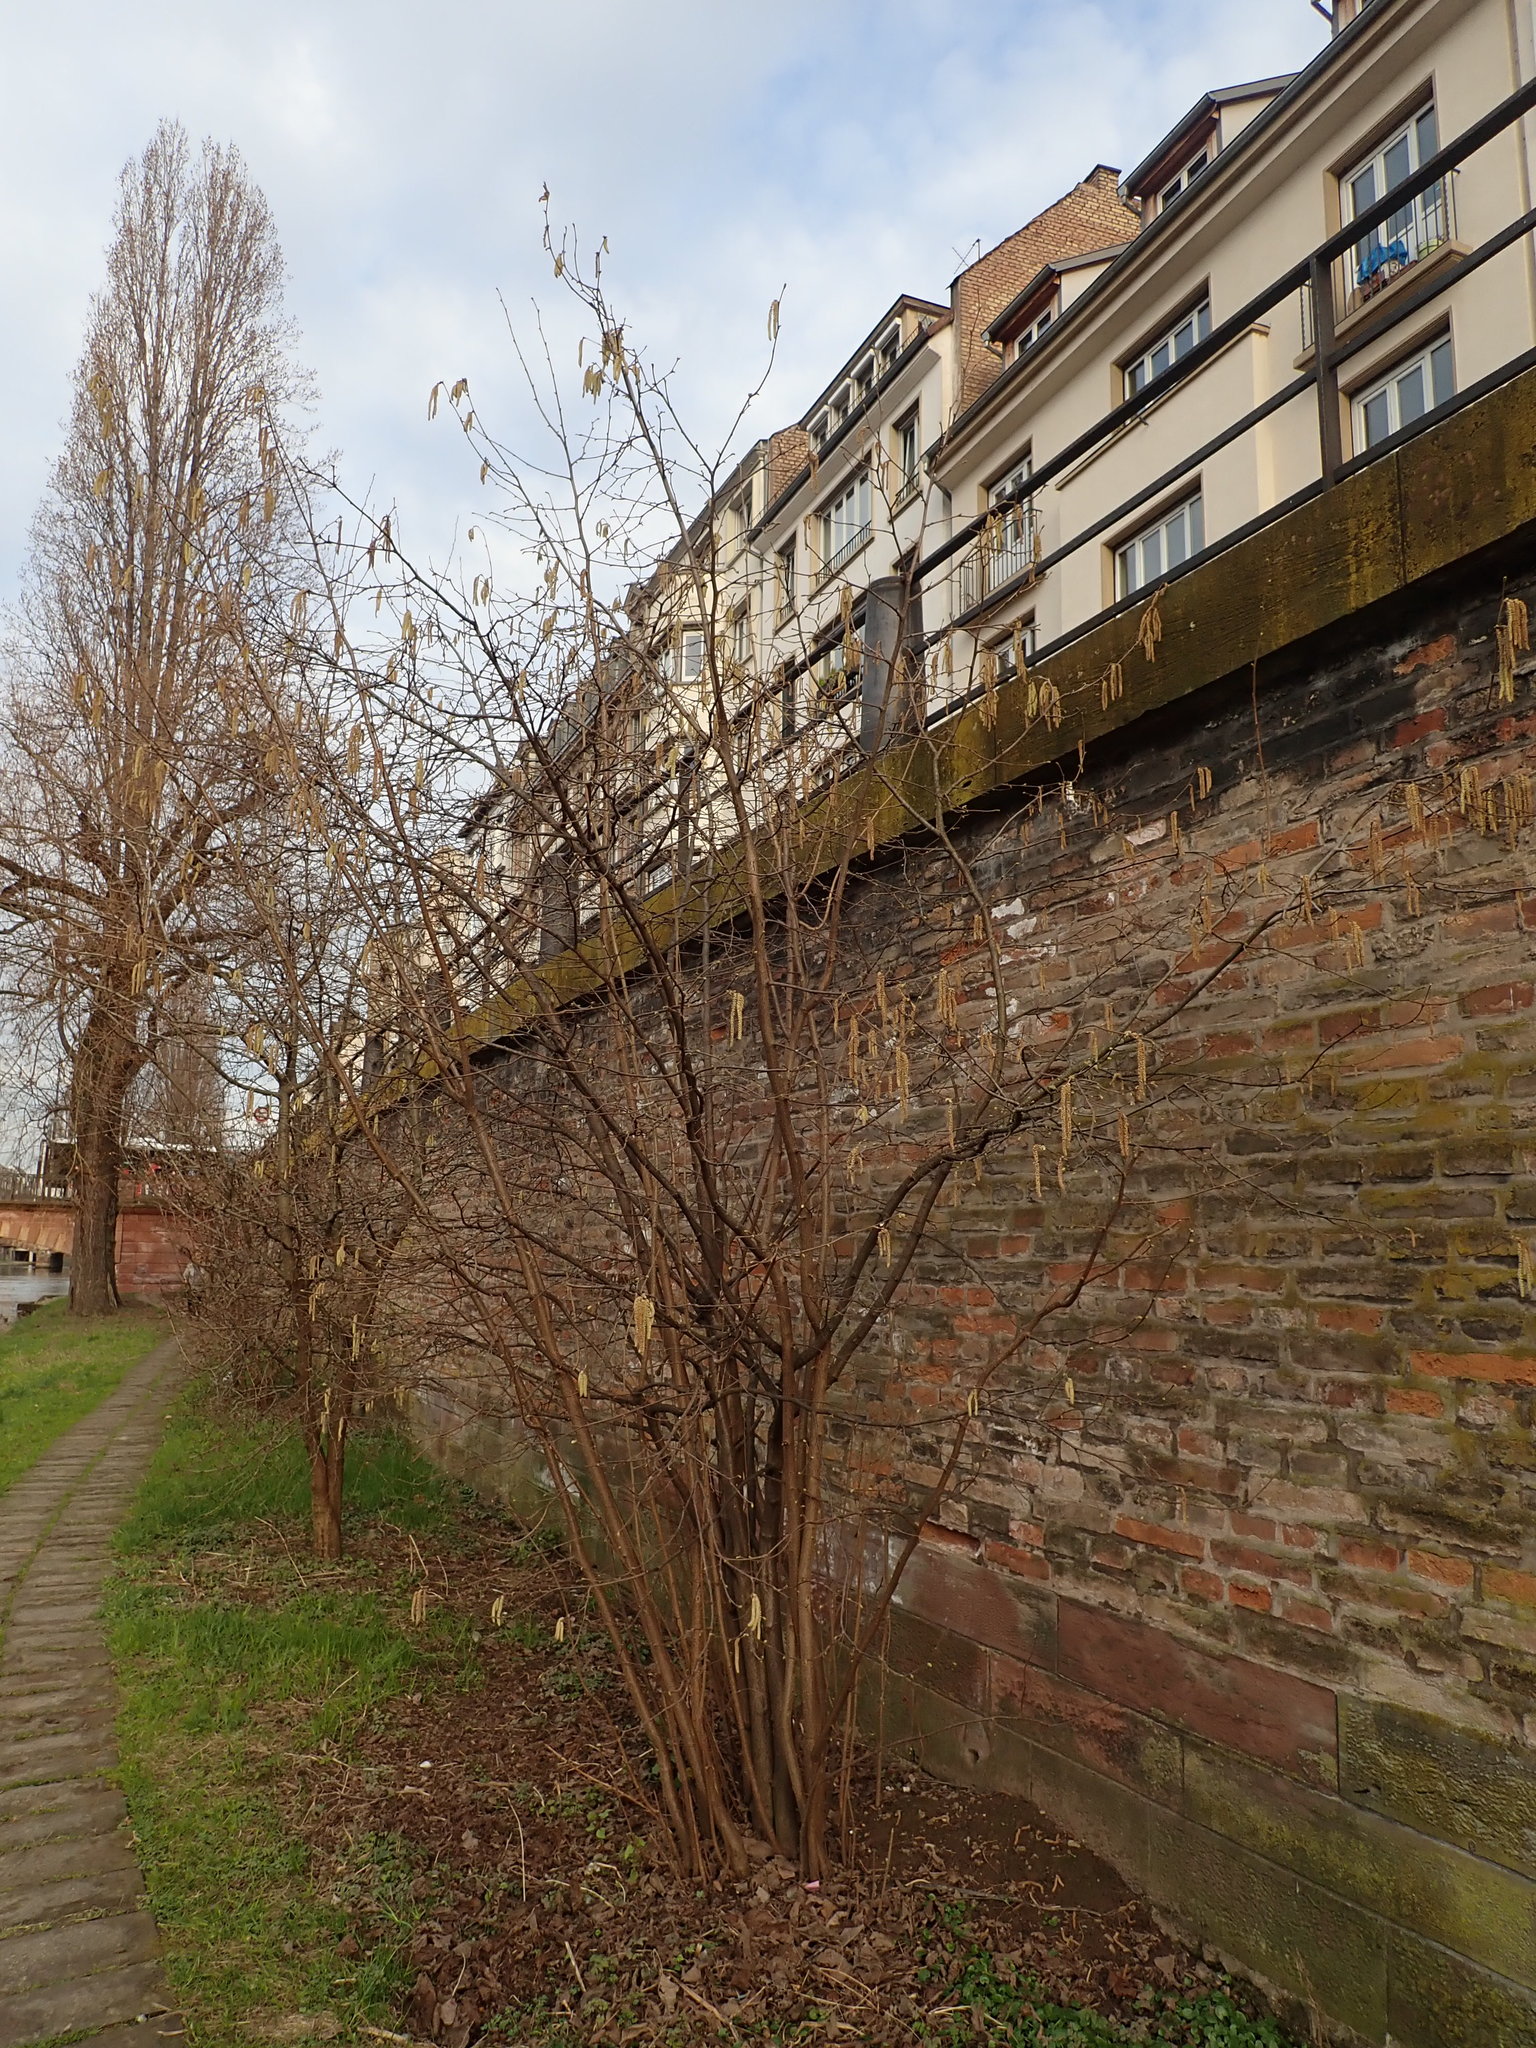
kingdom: Plantae
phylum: Tracheophyta
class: Magnoliopsida
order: Fagales
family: Betulaceae
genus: Corylus
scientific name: Corylus avellana
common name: European hazel
